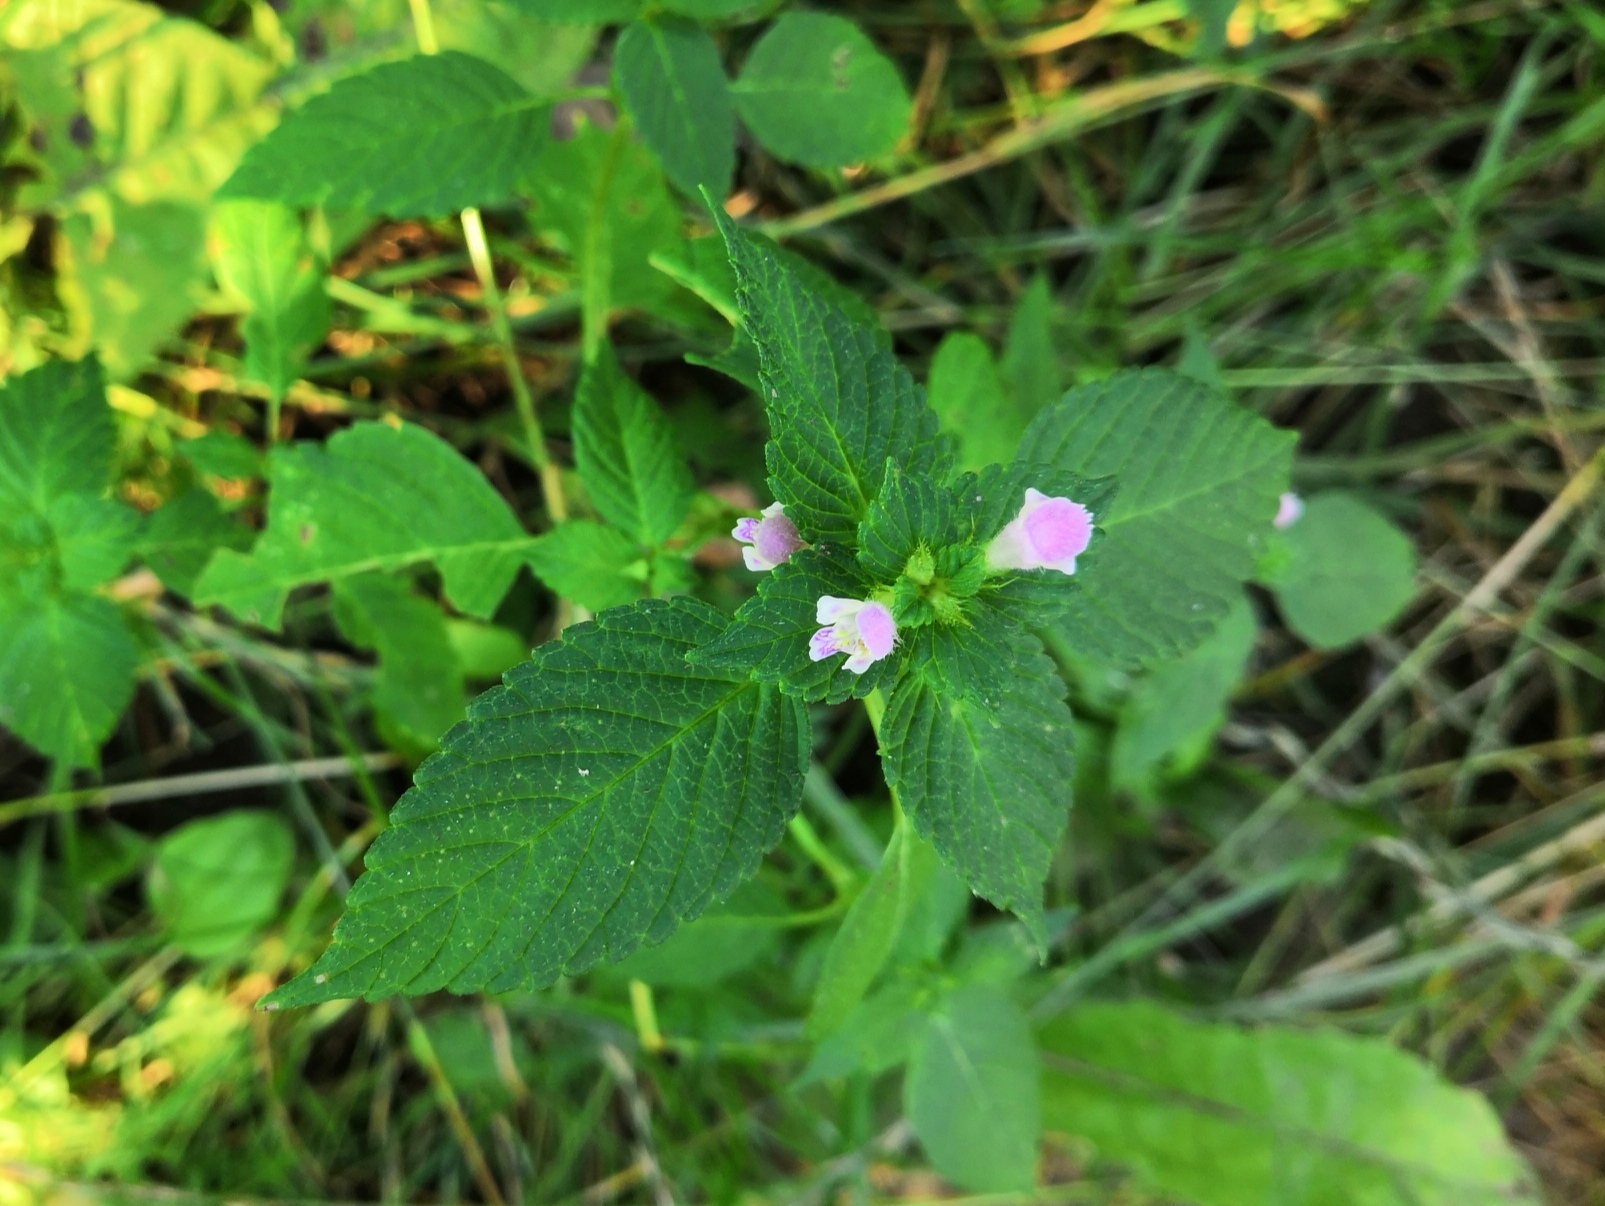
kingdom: Plantae
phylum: Tracheophyta
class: Magnoliopsida
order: Lamiales
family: Lamiaceae
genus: Galeopsis
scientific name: Galeopsis tetrahit
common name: Common hemp-nettle
